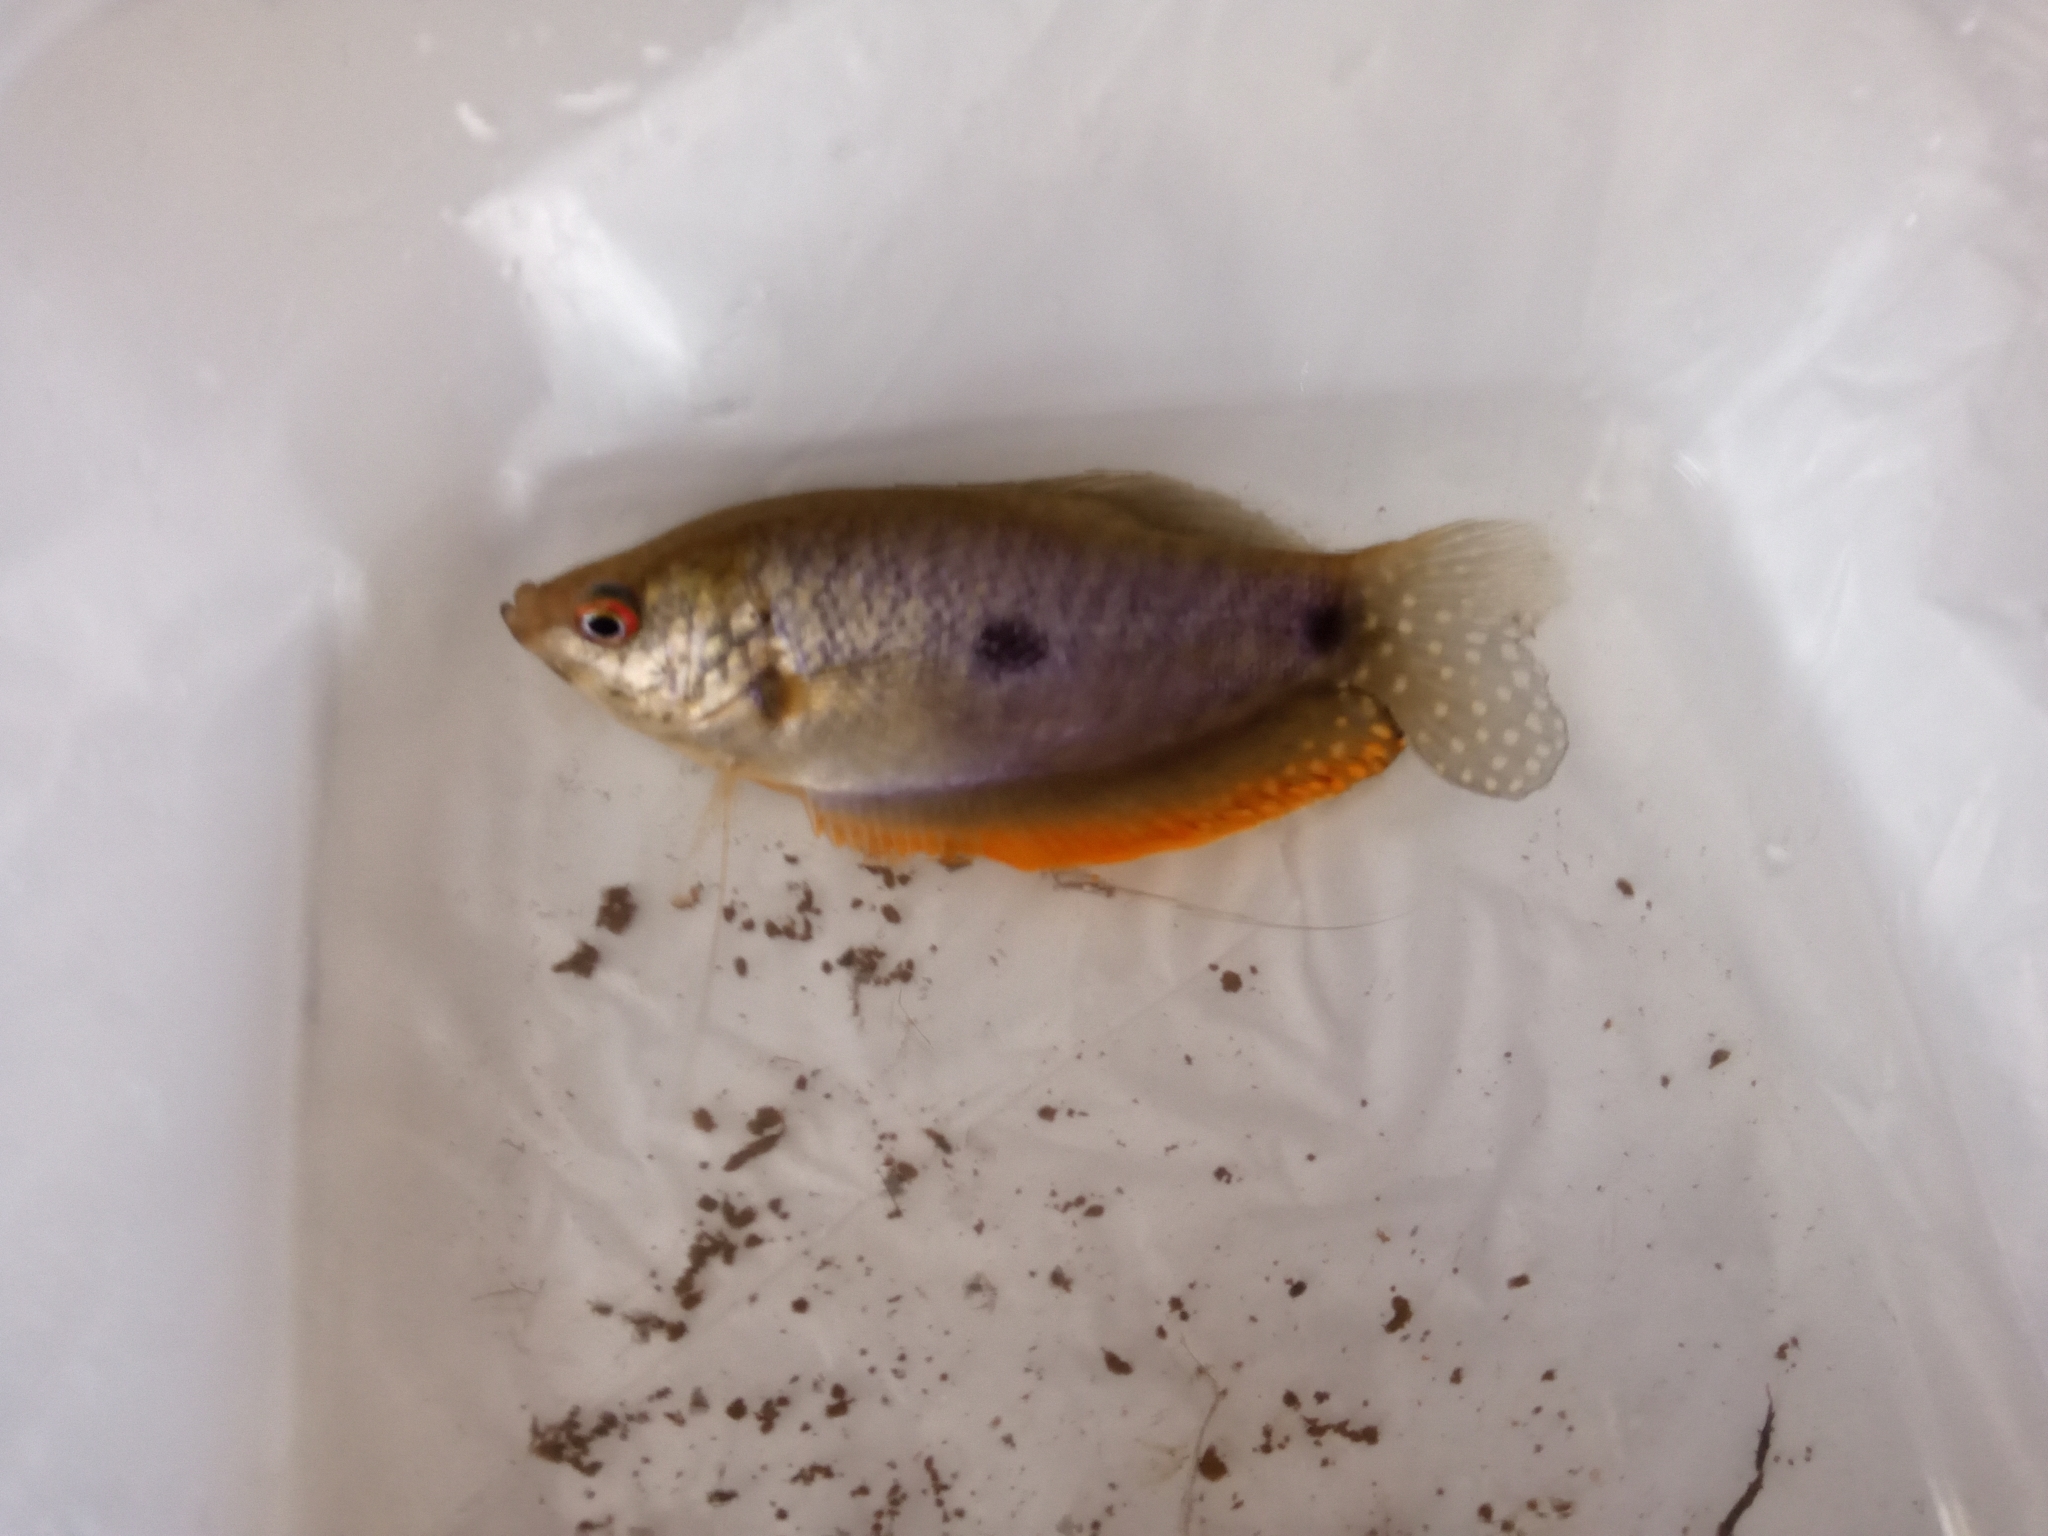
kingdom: Animalia
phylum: Chordata
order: Perciformes
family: Osphronemidae
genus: Trichopodus
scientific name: Trichopodus trichopterus
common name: Blue gourami
